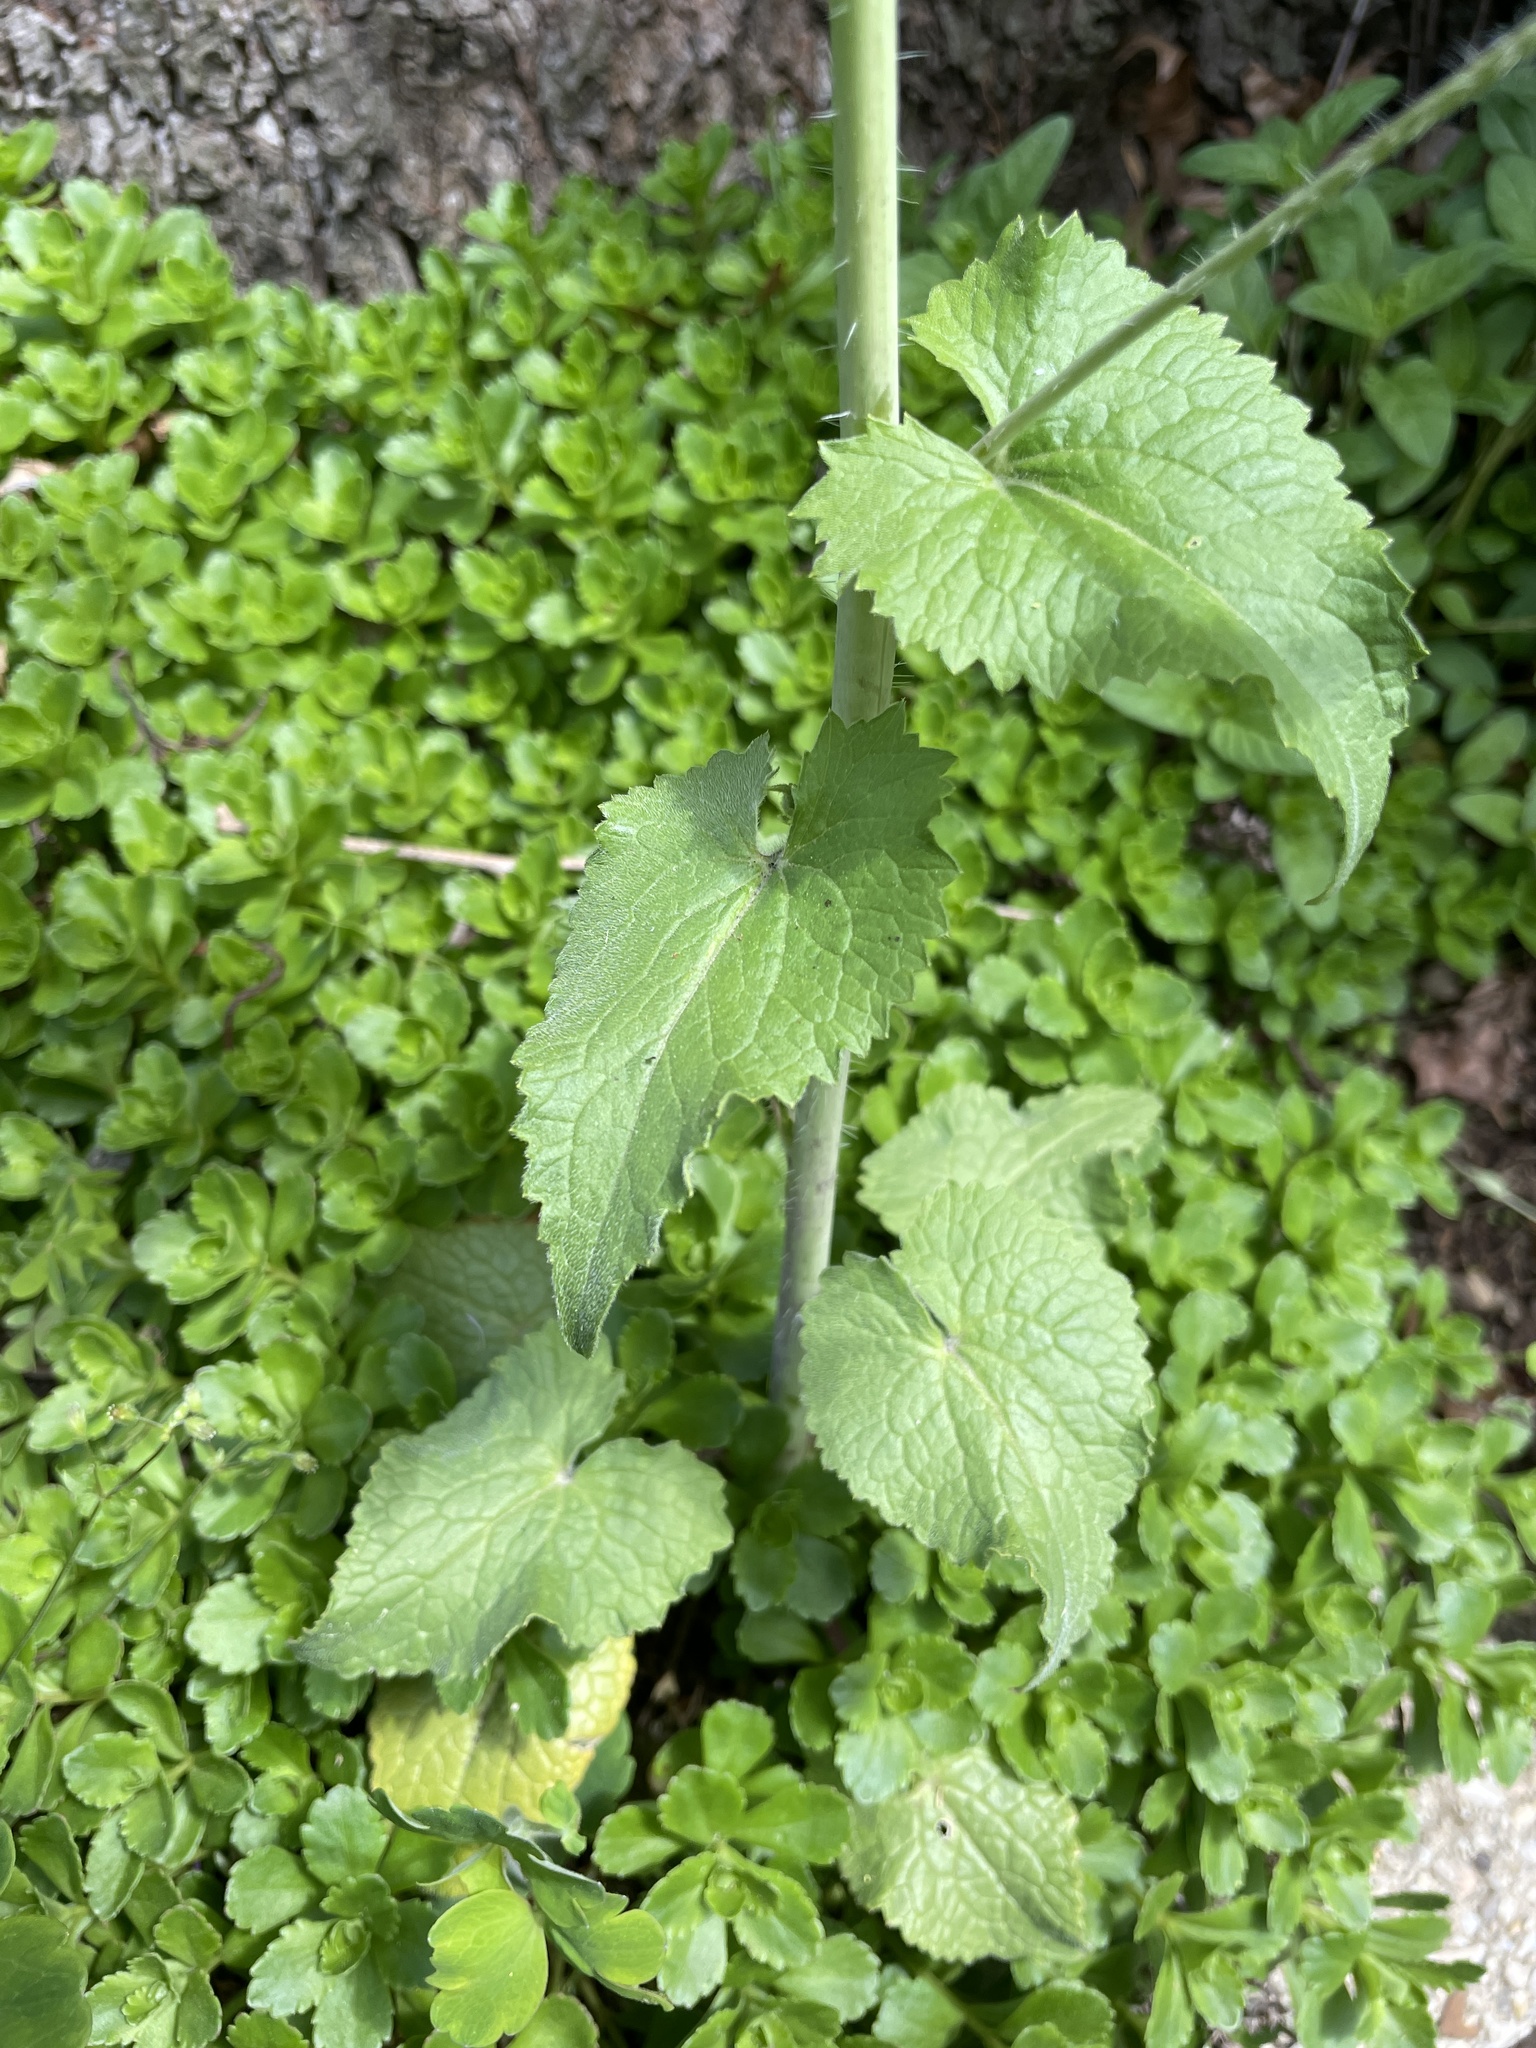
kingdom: Plantae
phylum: Tracheophyta
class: Magnoliopsida
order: Brassicales
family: Brassicaceae
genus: Lunaria
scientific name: Lunaria annua
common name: Honesty
